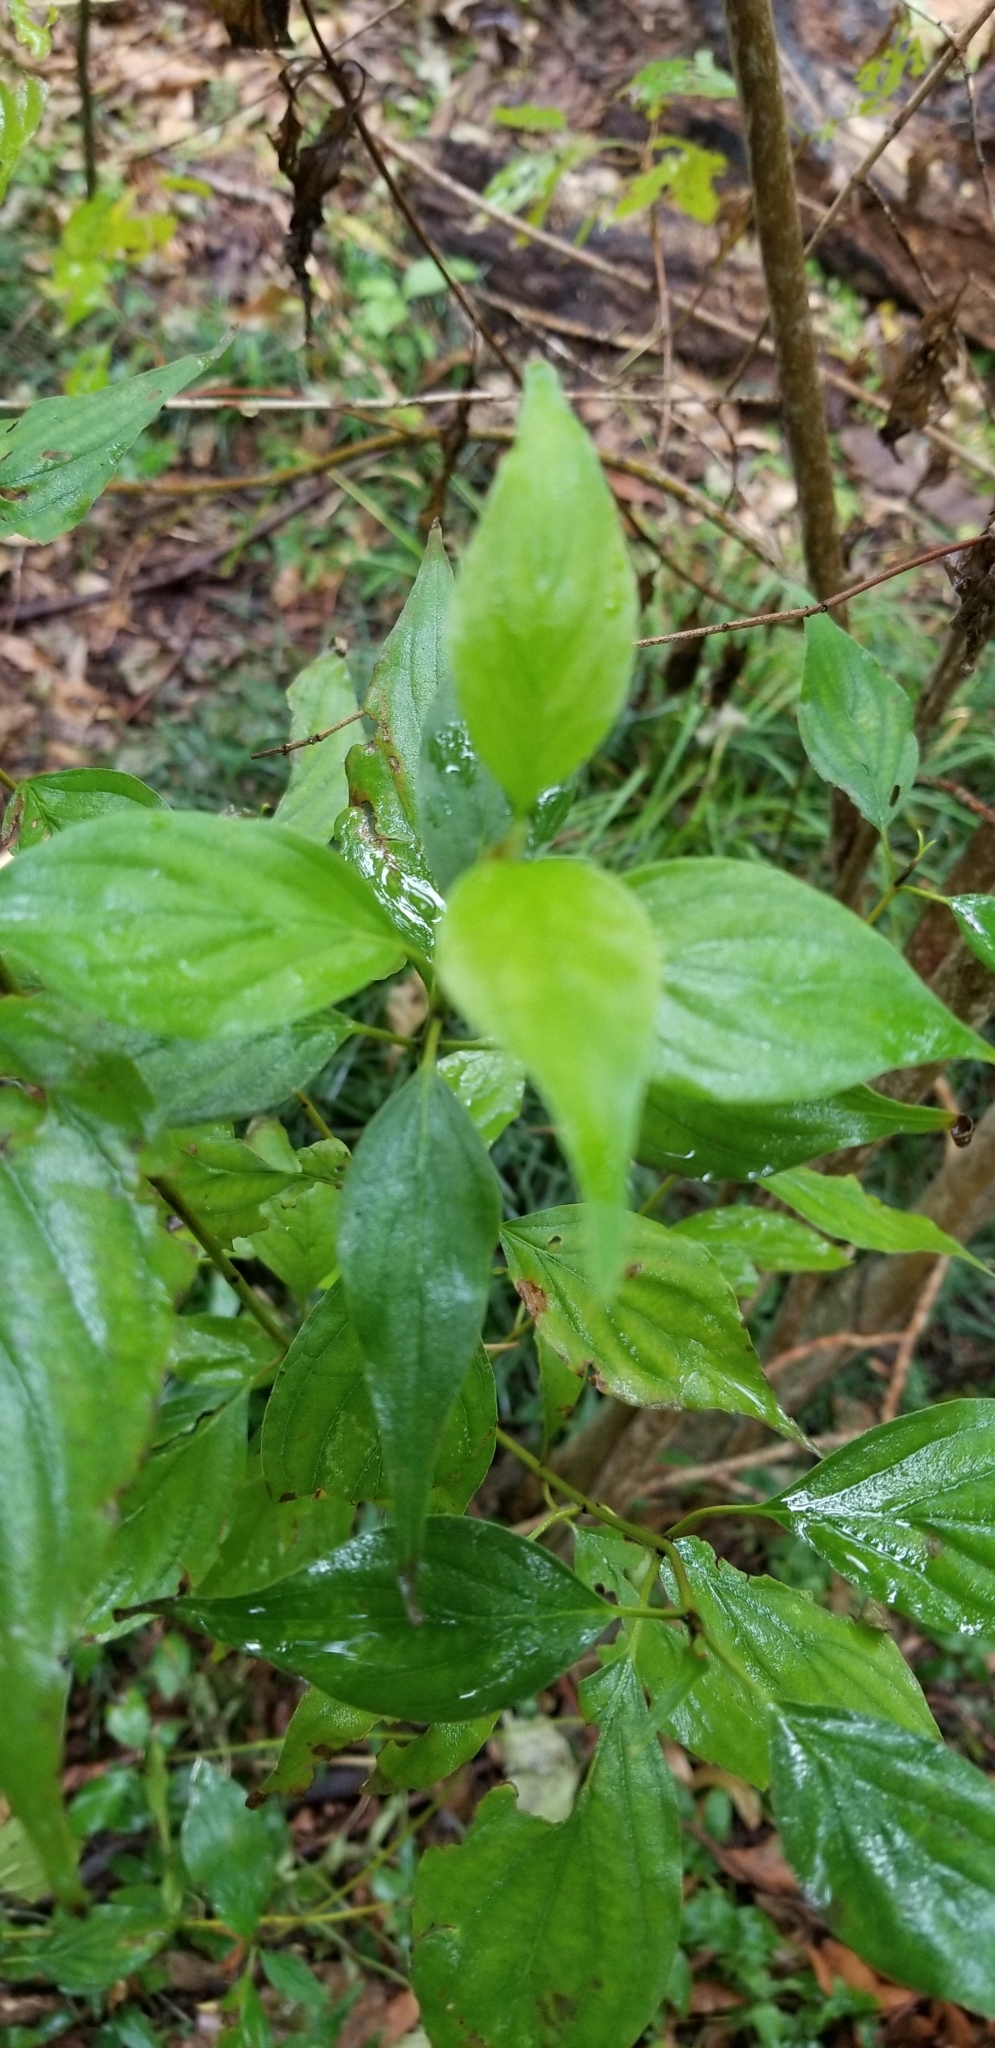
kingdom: Plantae
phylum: Tracheophyta
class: Magnoliopsida
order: Cornales
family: Cornaceae
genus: Cornus
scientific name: Cornus drummondii
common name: Rough-leaf dogwood
